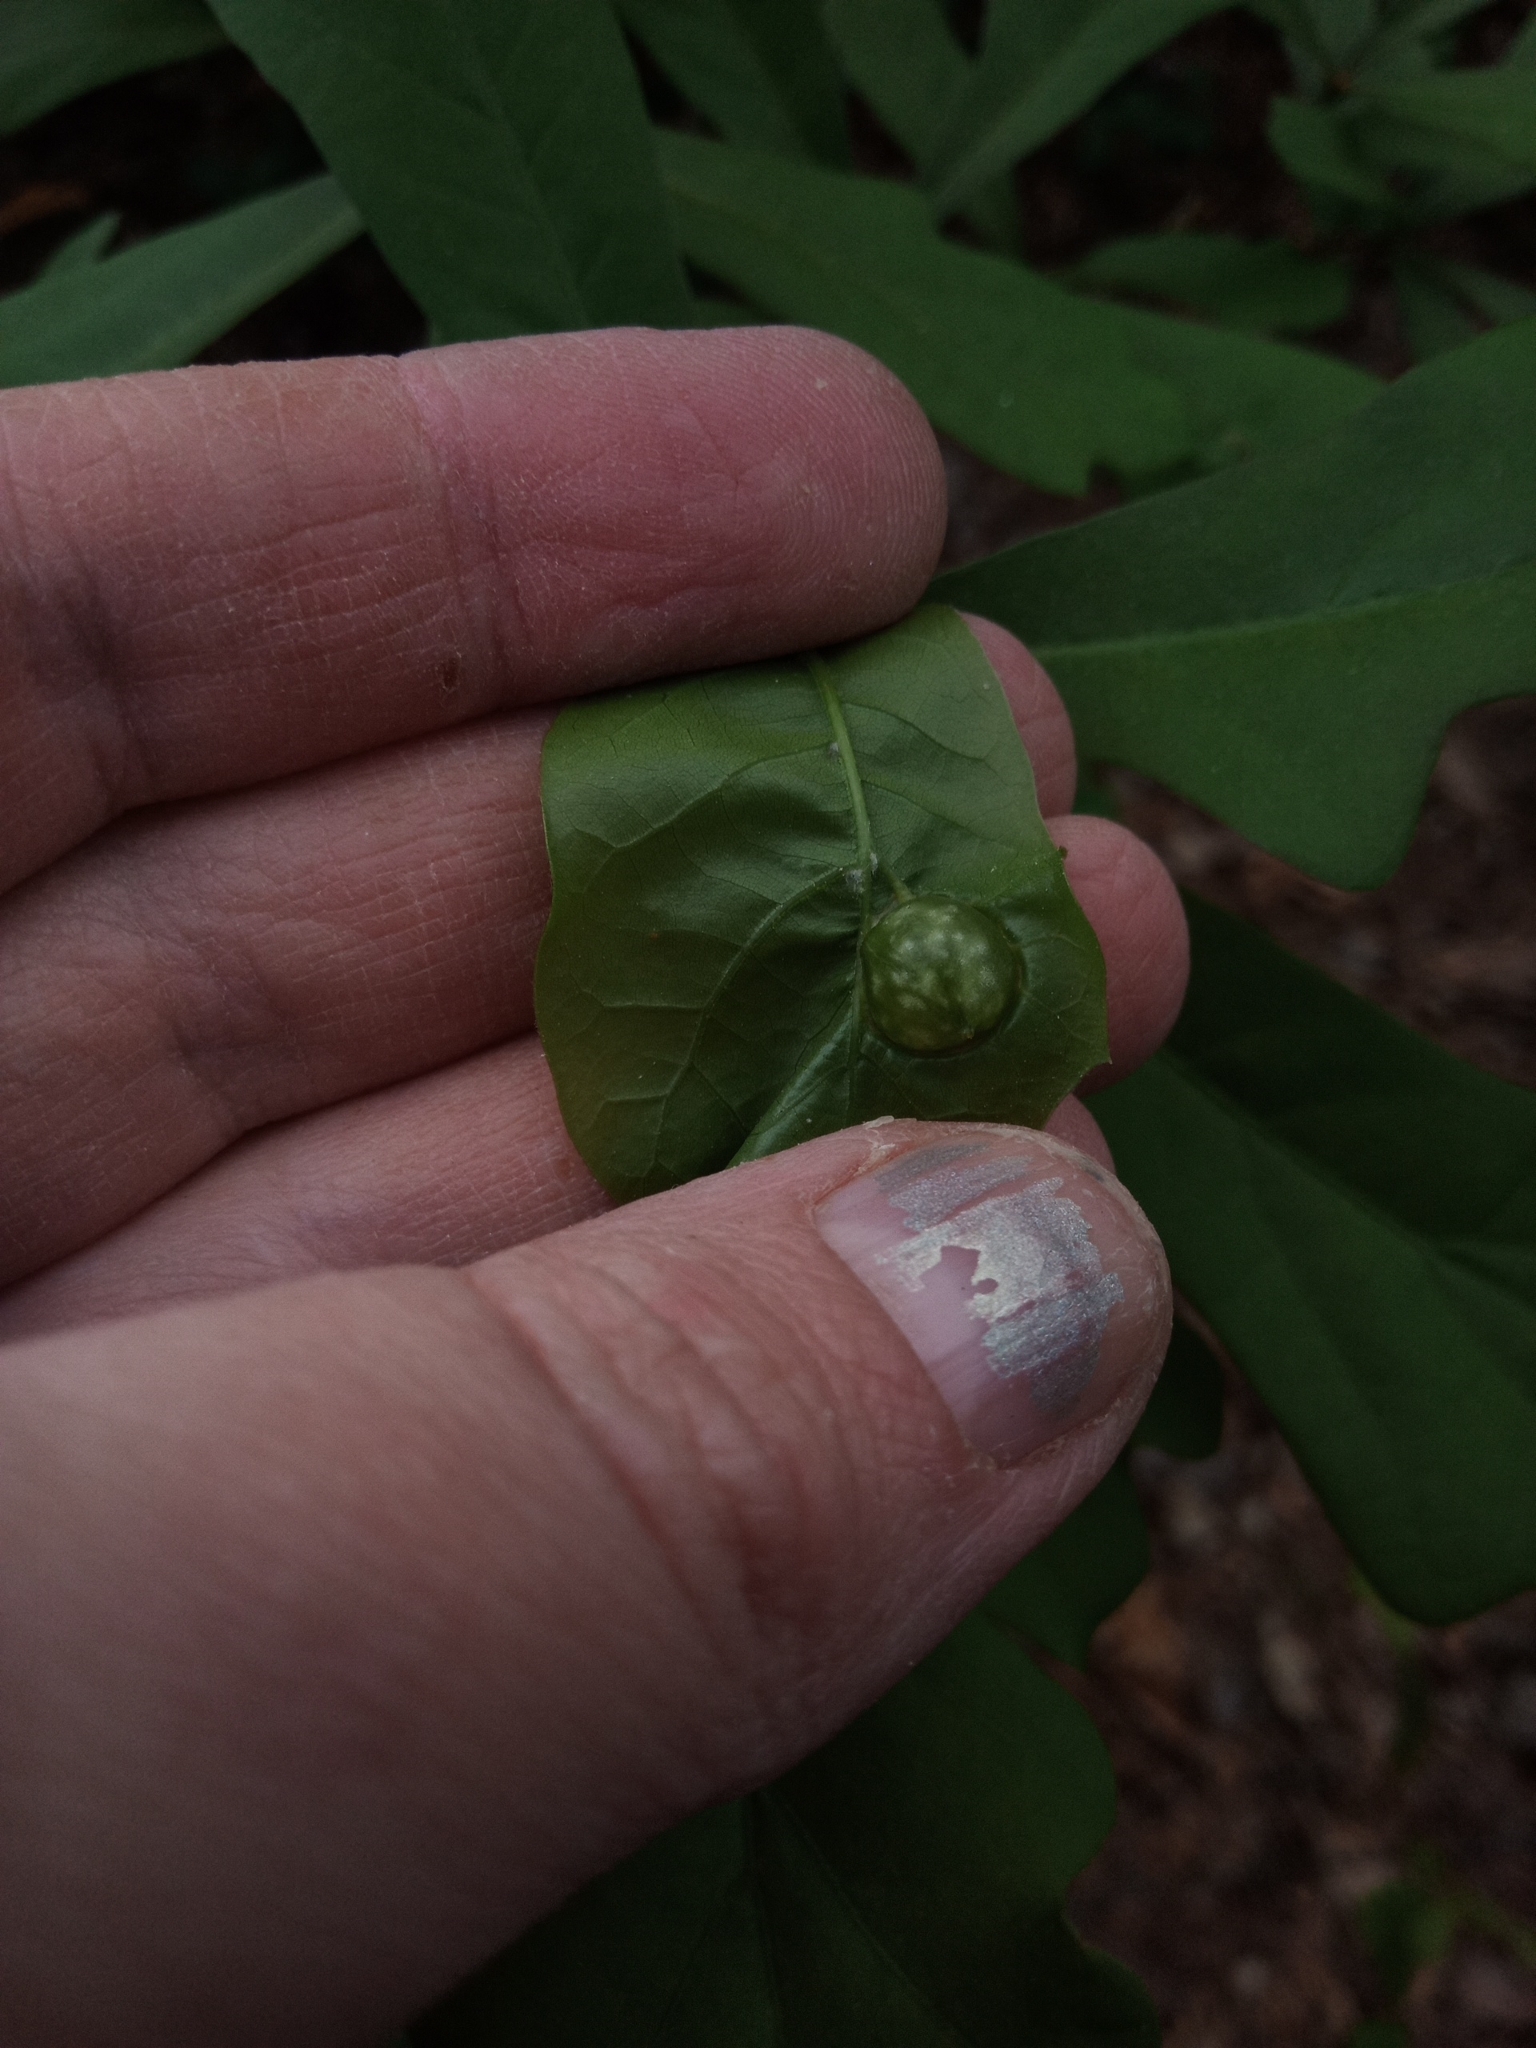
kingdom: Animalia
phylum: Arthropoda
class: Insecta
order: Hymenoptera
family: Cynipidae
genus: Dryocosmus
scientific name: Dryocosmus quercuspalustris
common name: Succulent oak gall wasp
